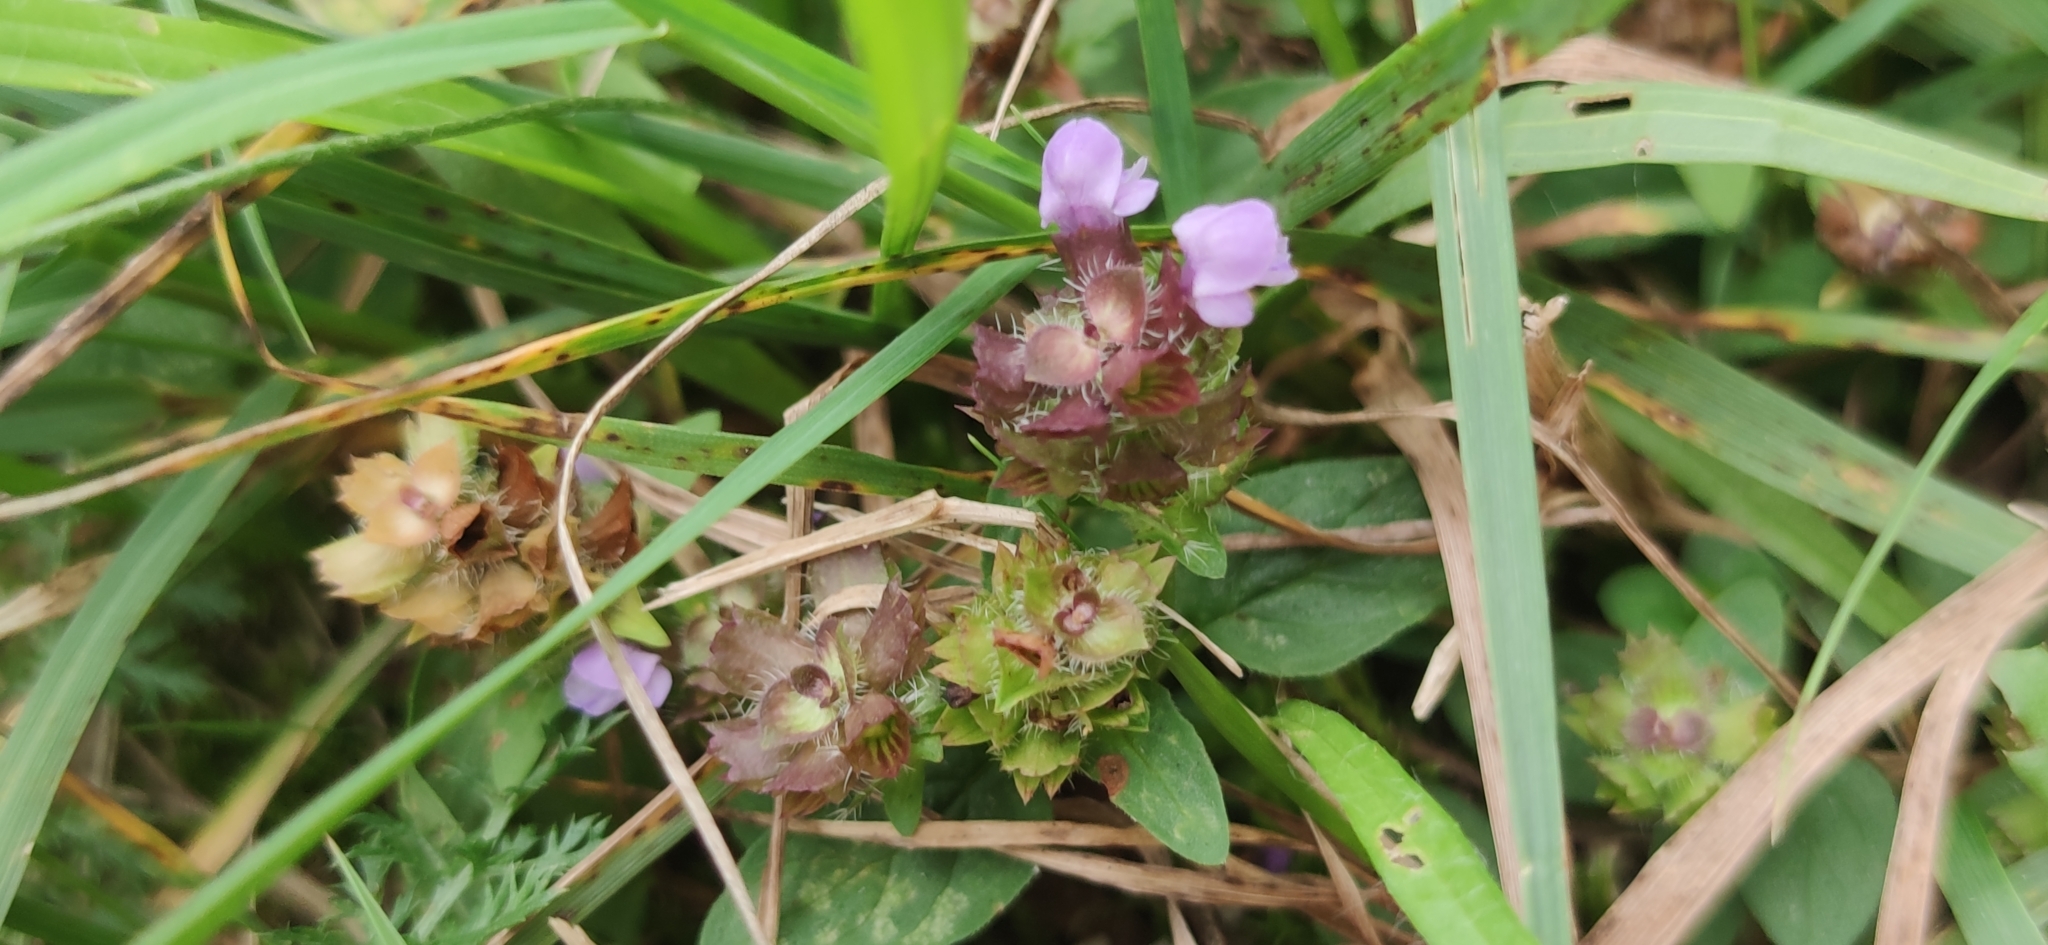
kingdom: Plantae
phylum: Tracheophyta
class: Magnoliopsida
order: Lamiales
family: Lamiaceae
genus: Prunella
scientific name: Prunella vulgaris
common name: Heal-all
